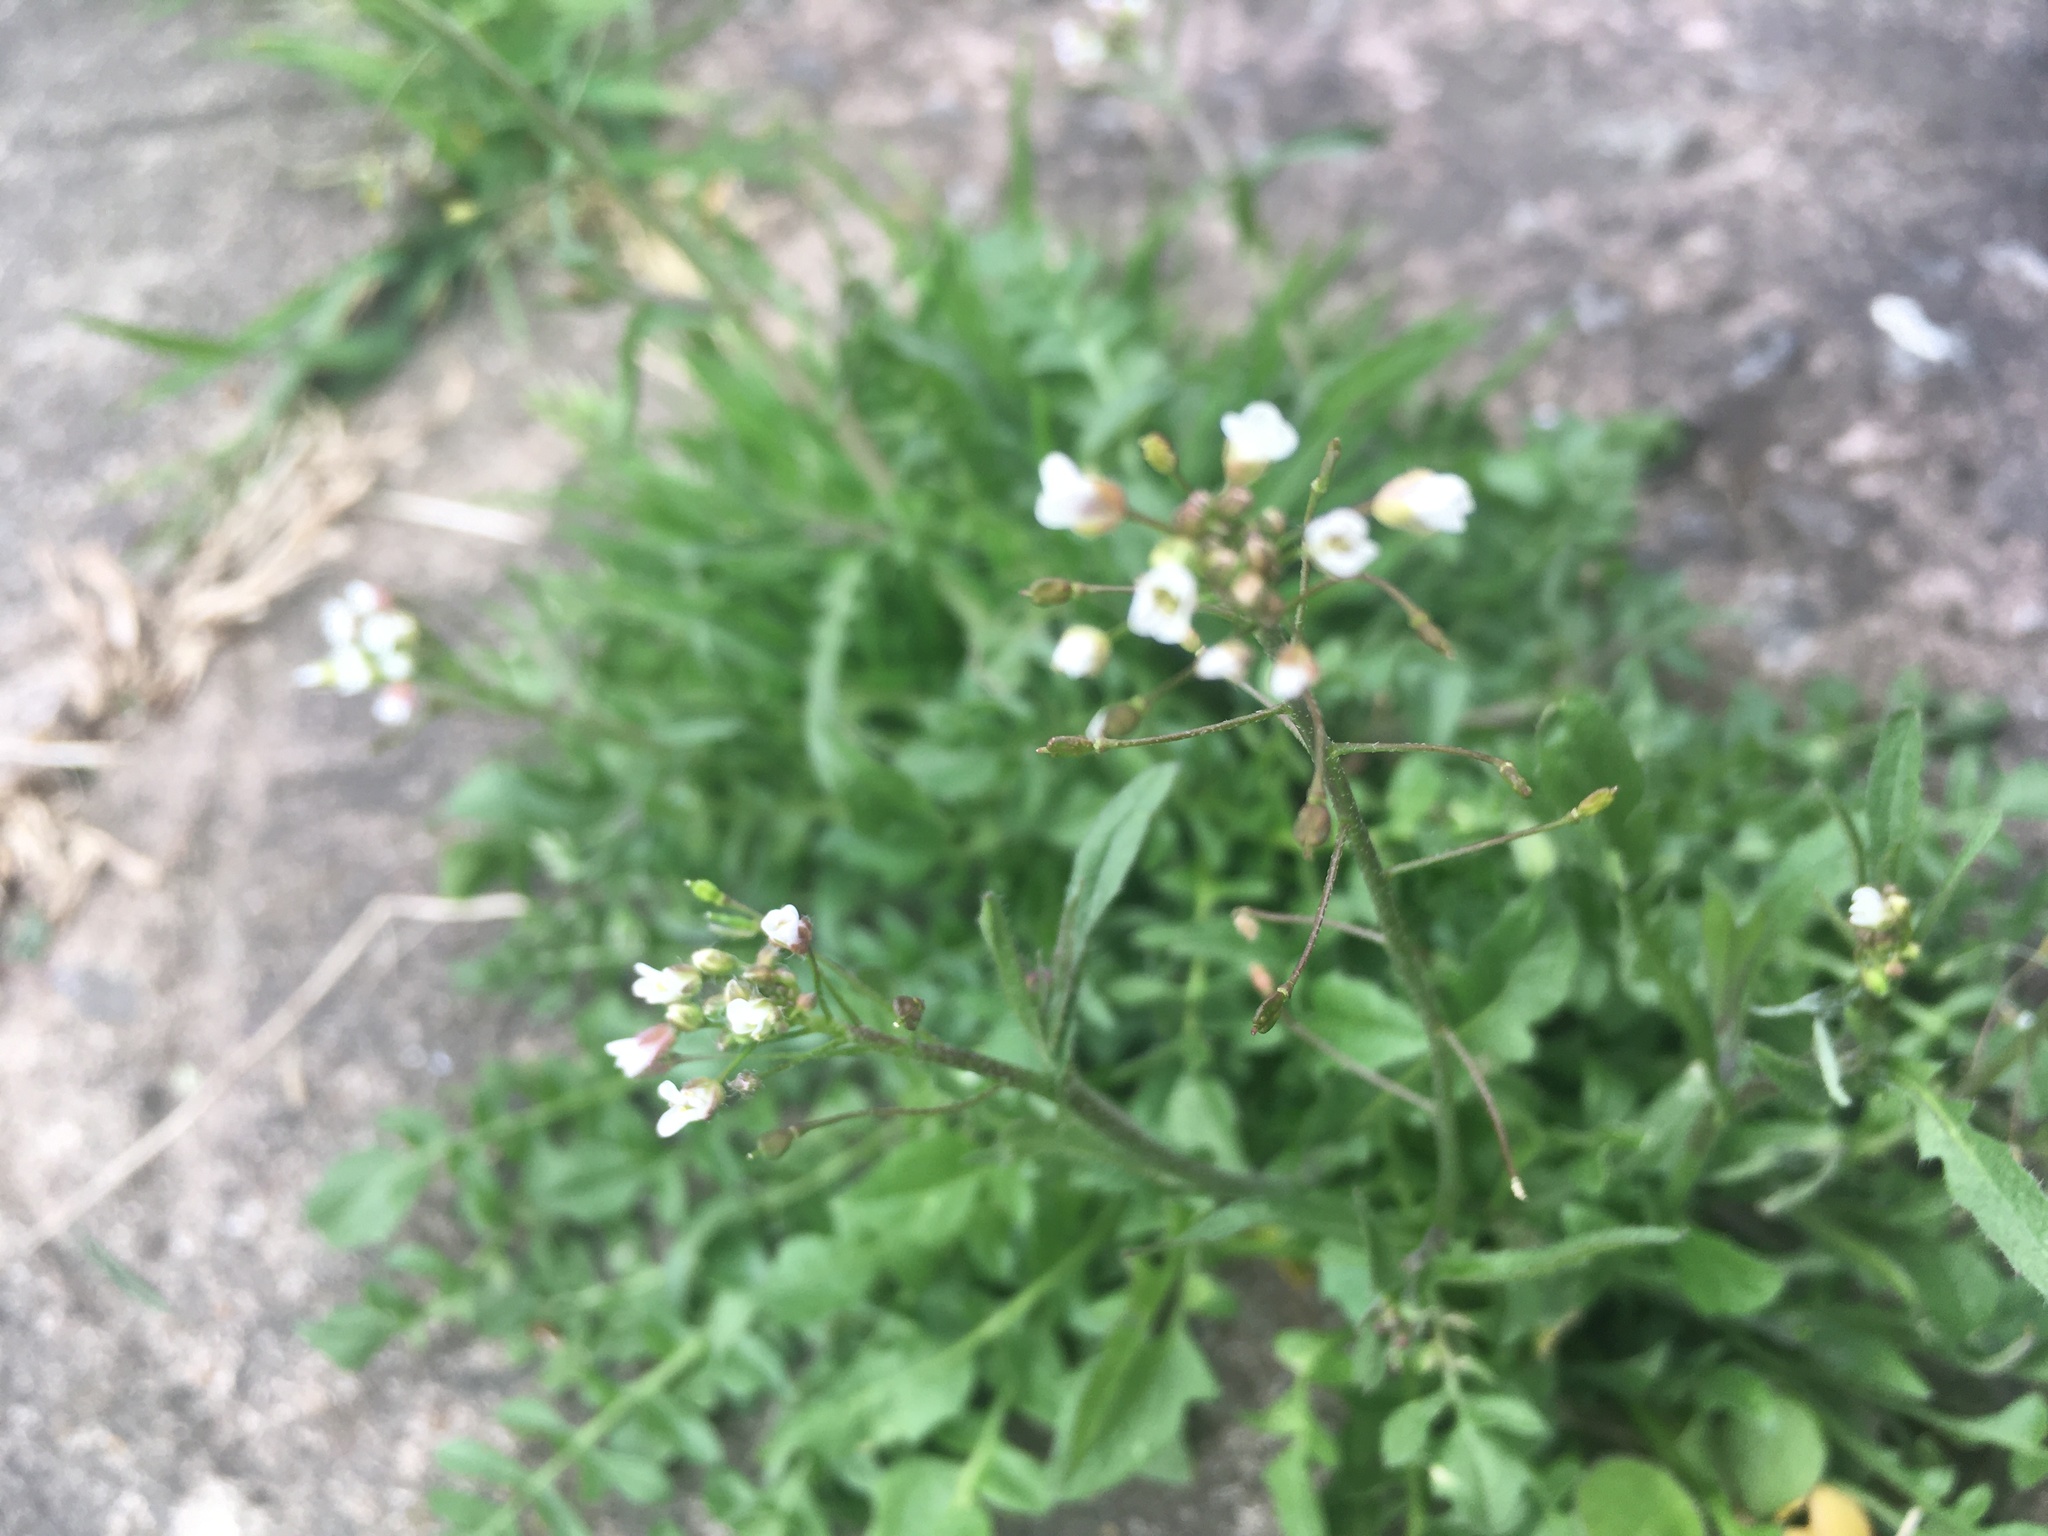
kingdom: Plantae
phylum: Tracheophyta
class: Magnoliopsida
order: Brassicales
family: Brassicaceae
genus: Capsella
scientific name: Capsella bursa-pastoris
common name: Shepherd's purse
